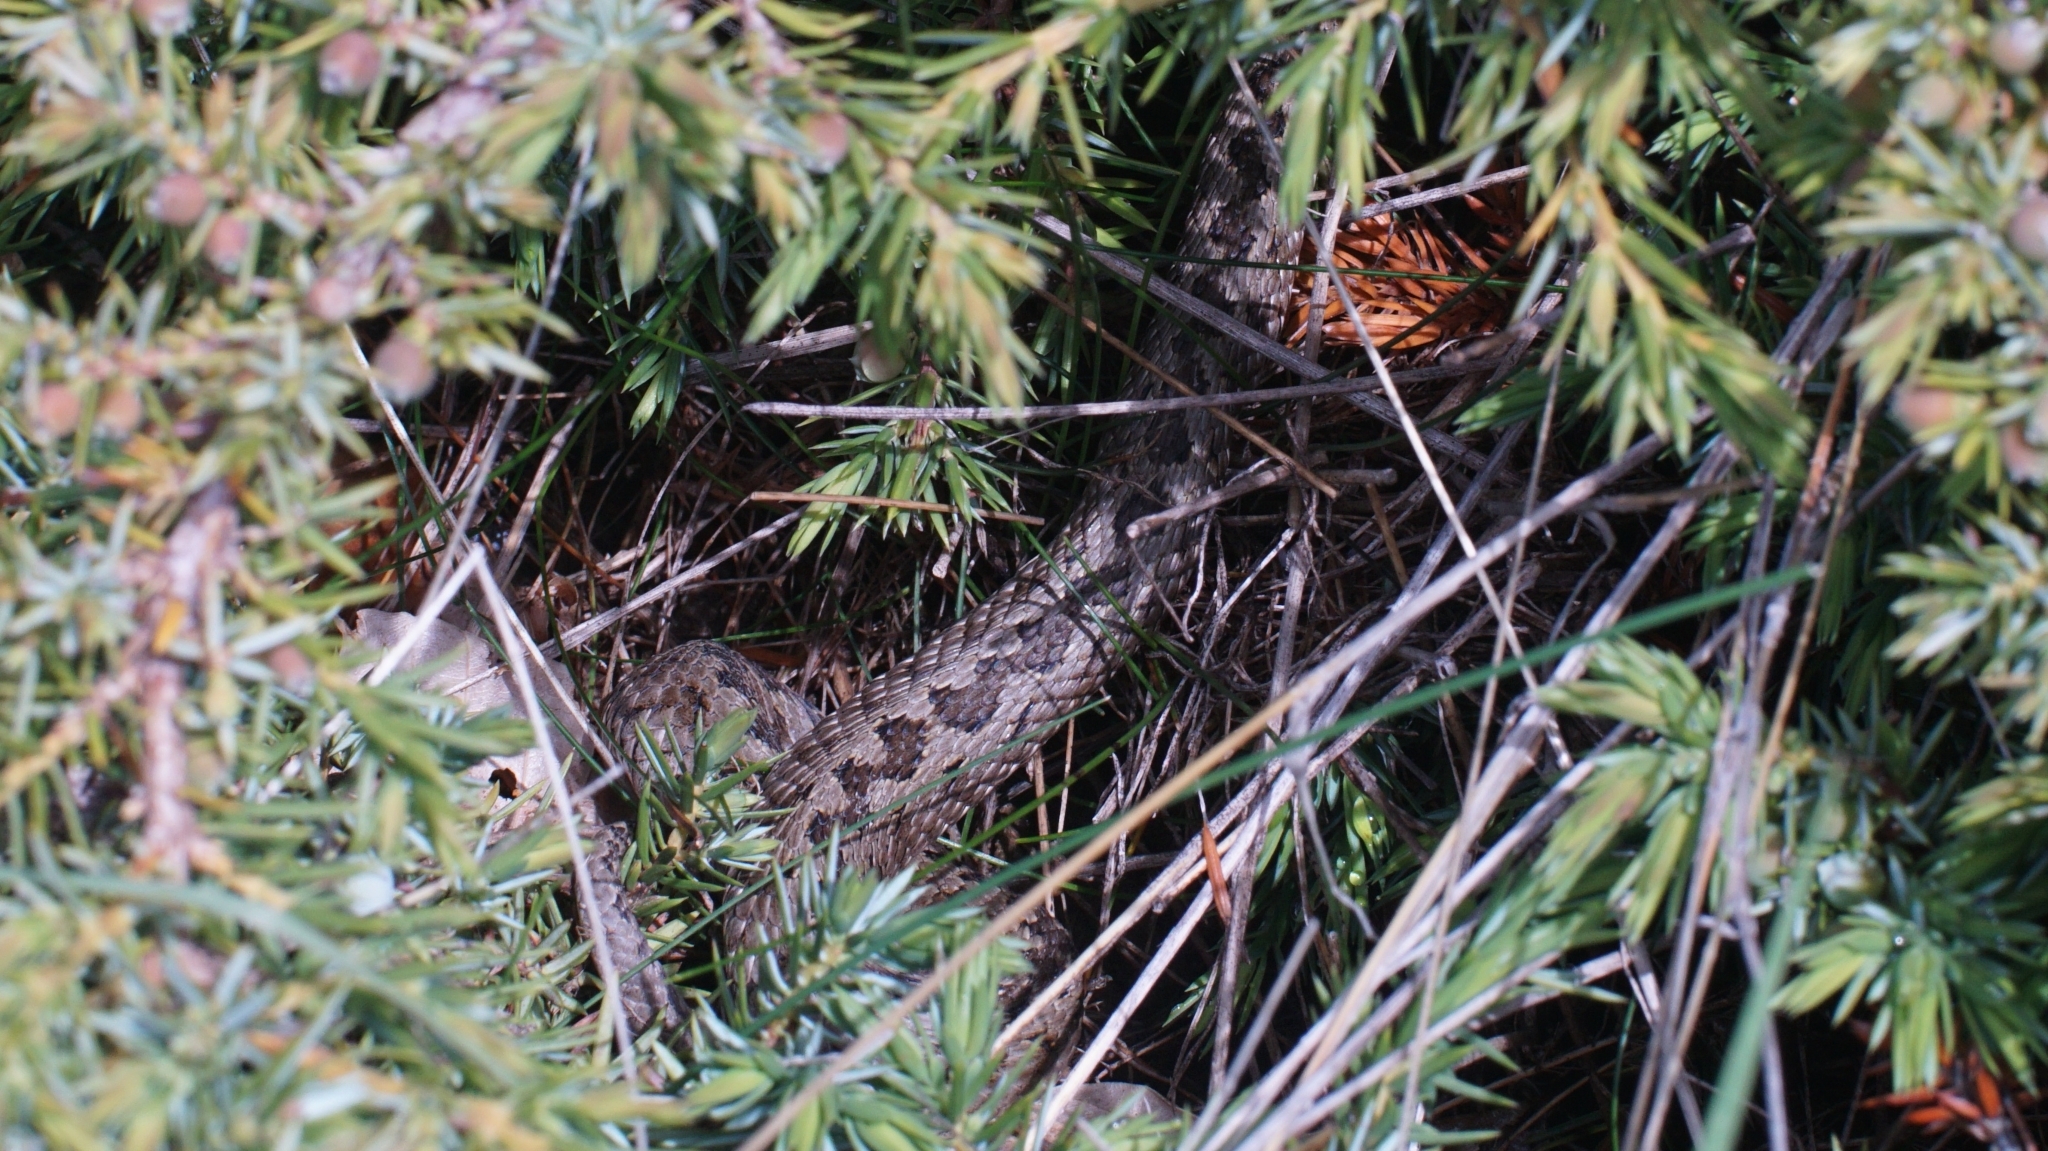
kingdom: Animalia
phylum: Chordata
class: Squamata
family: Viperidae
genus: Vipera
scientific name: Vipera ursinii
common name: Meadow viper
